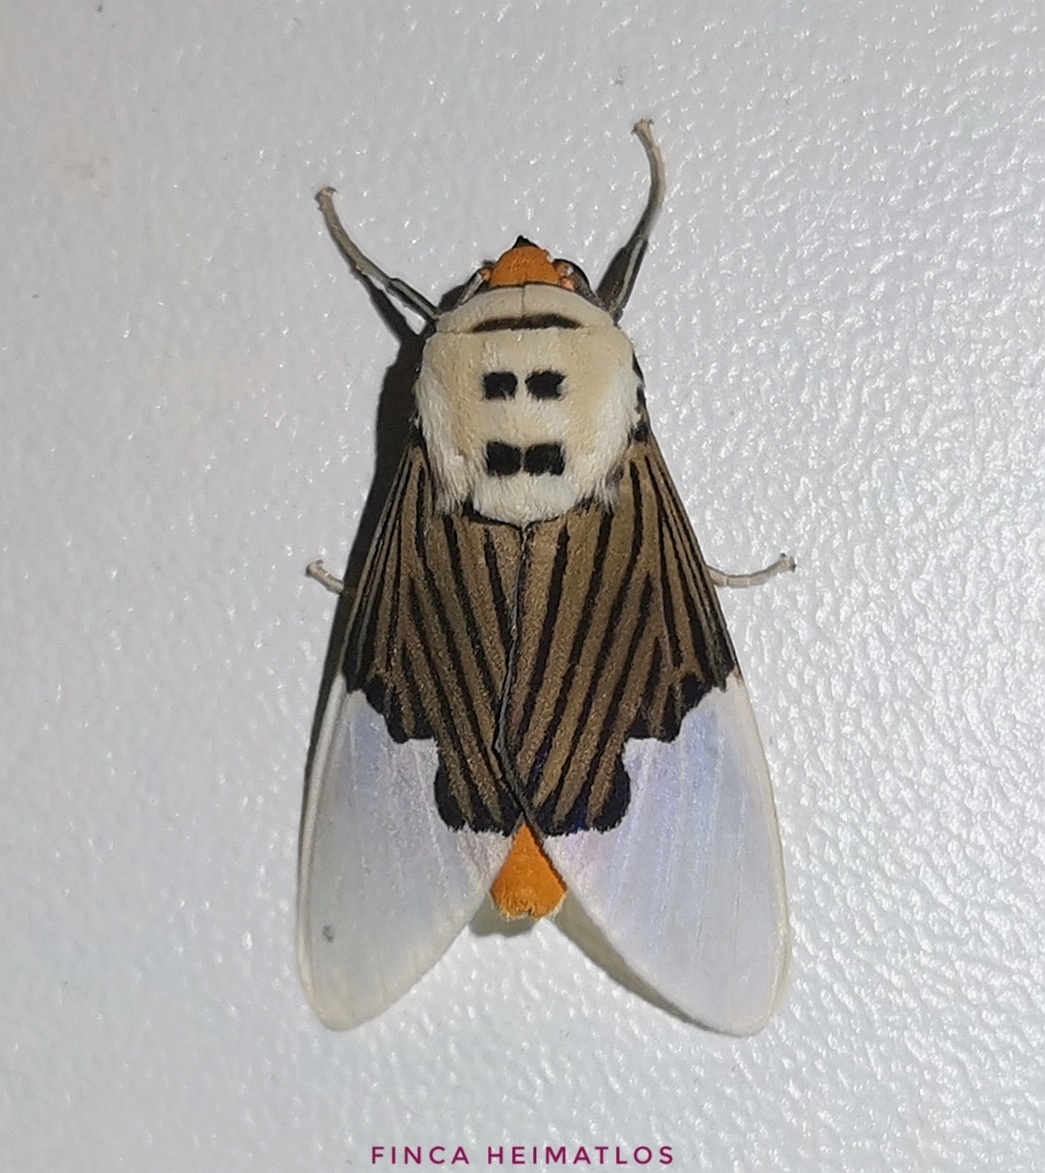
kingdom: Animalia
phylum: Arthropoda
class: Insecta
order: Lepidoptera
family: Erebidae
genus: Ischnognatha
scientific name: Ischnognatha semiopalina
